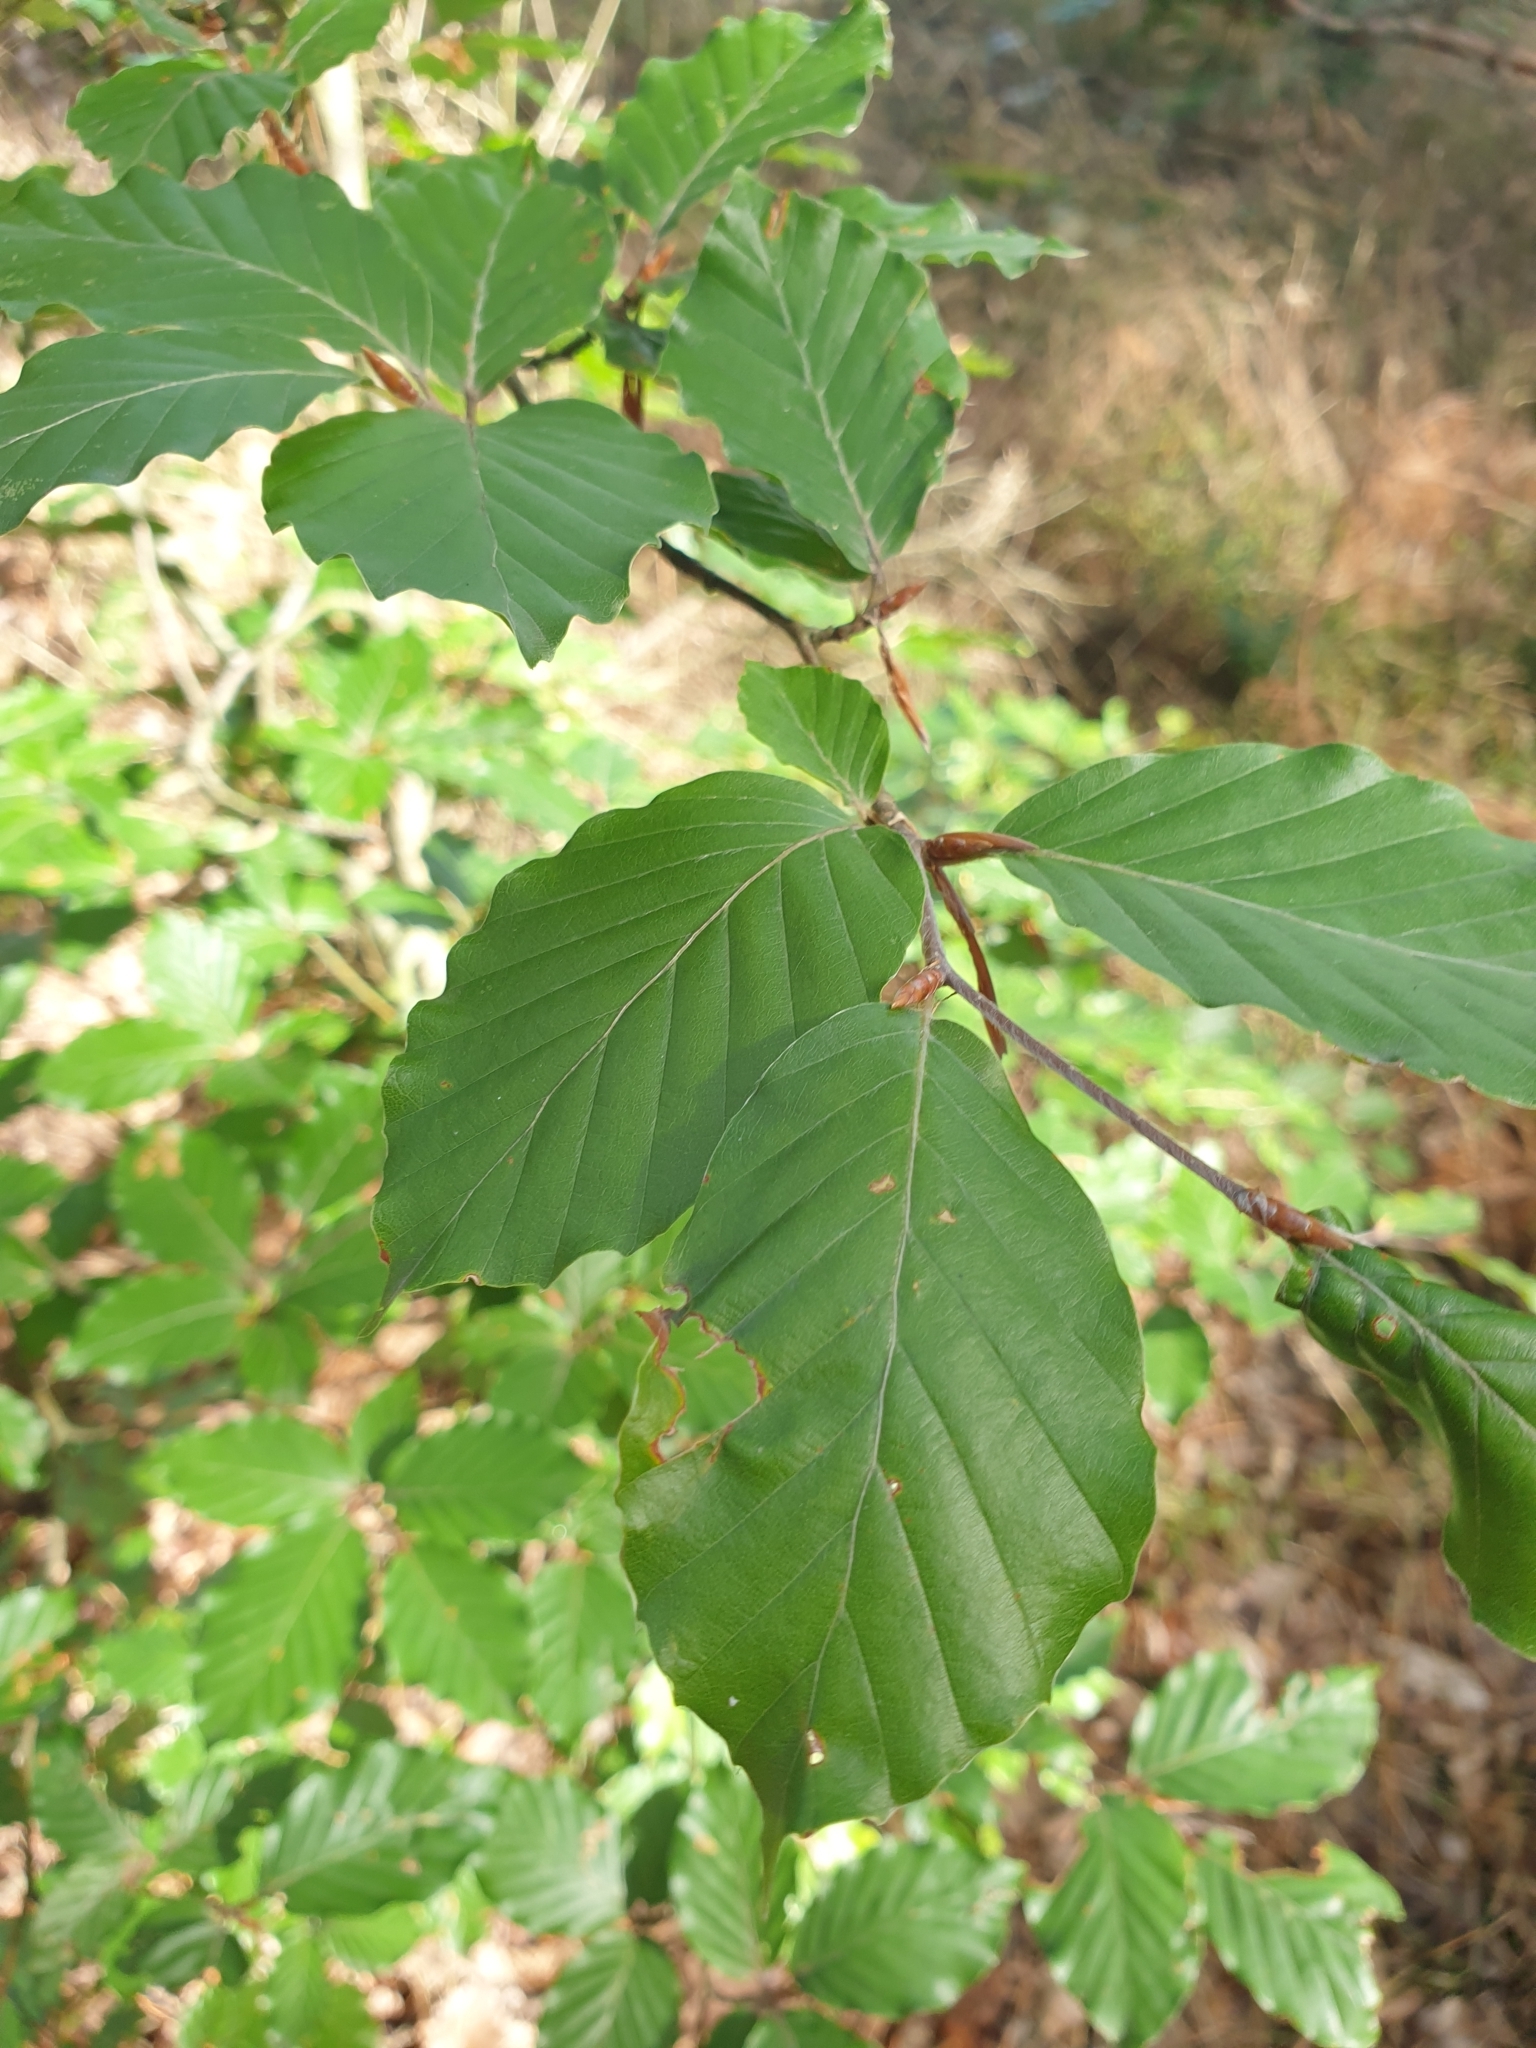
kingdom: Plantae
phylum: Tracheophyta
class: Magnoliopsida
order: Fagales
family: Fagaceae
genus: Fagus
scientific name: Fagus sylvatica
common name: Beech
